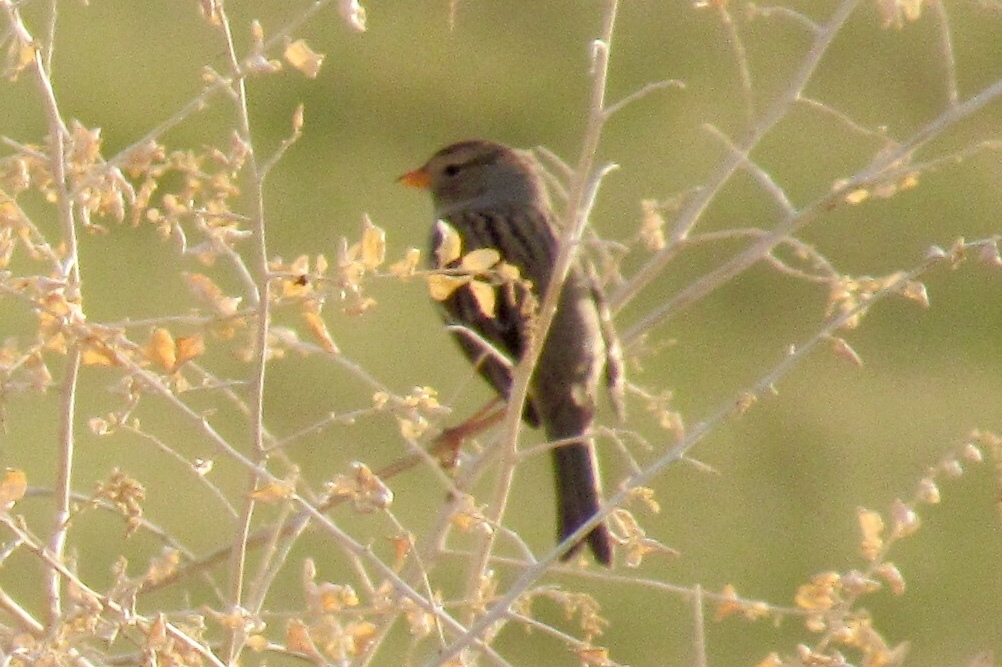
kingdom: Animalia
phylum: Chordata
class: Aves
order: Passeriformes
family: Passerellidae
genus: Zonotrichia
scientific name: Zonotrichia leucophrys
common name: White-crowned sparrow
